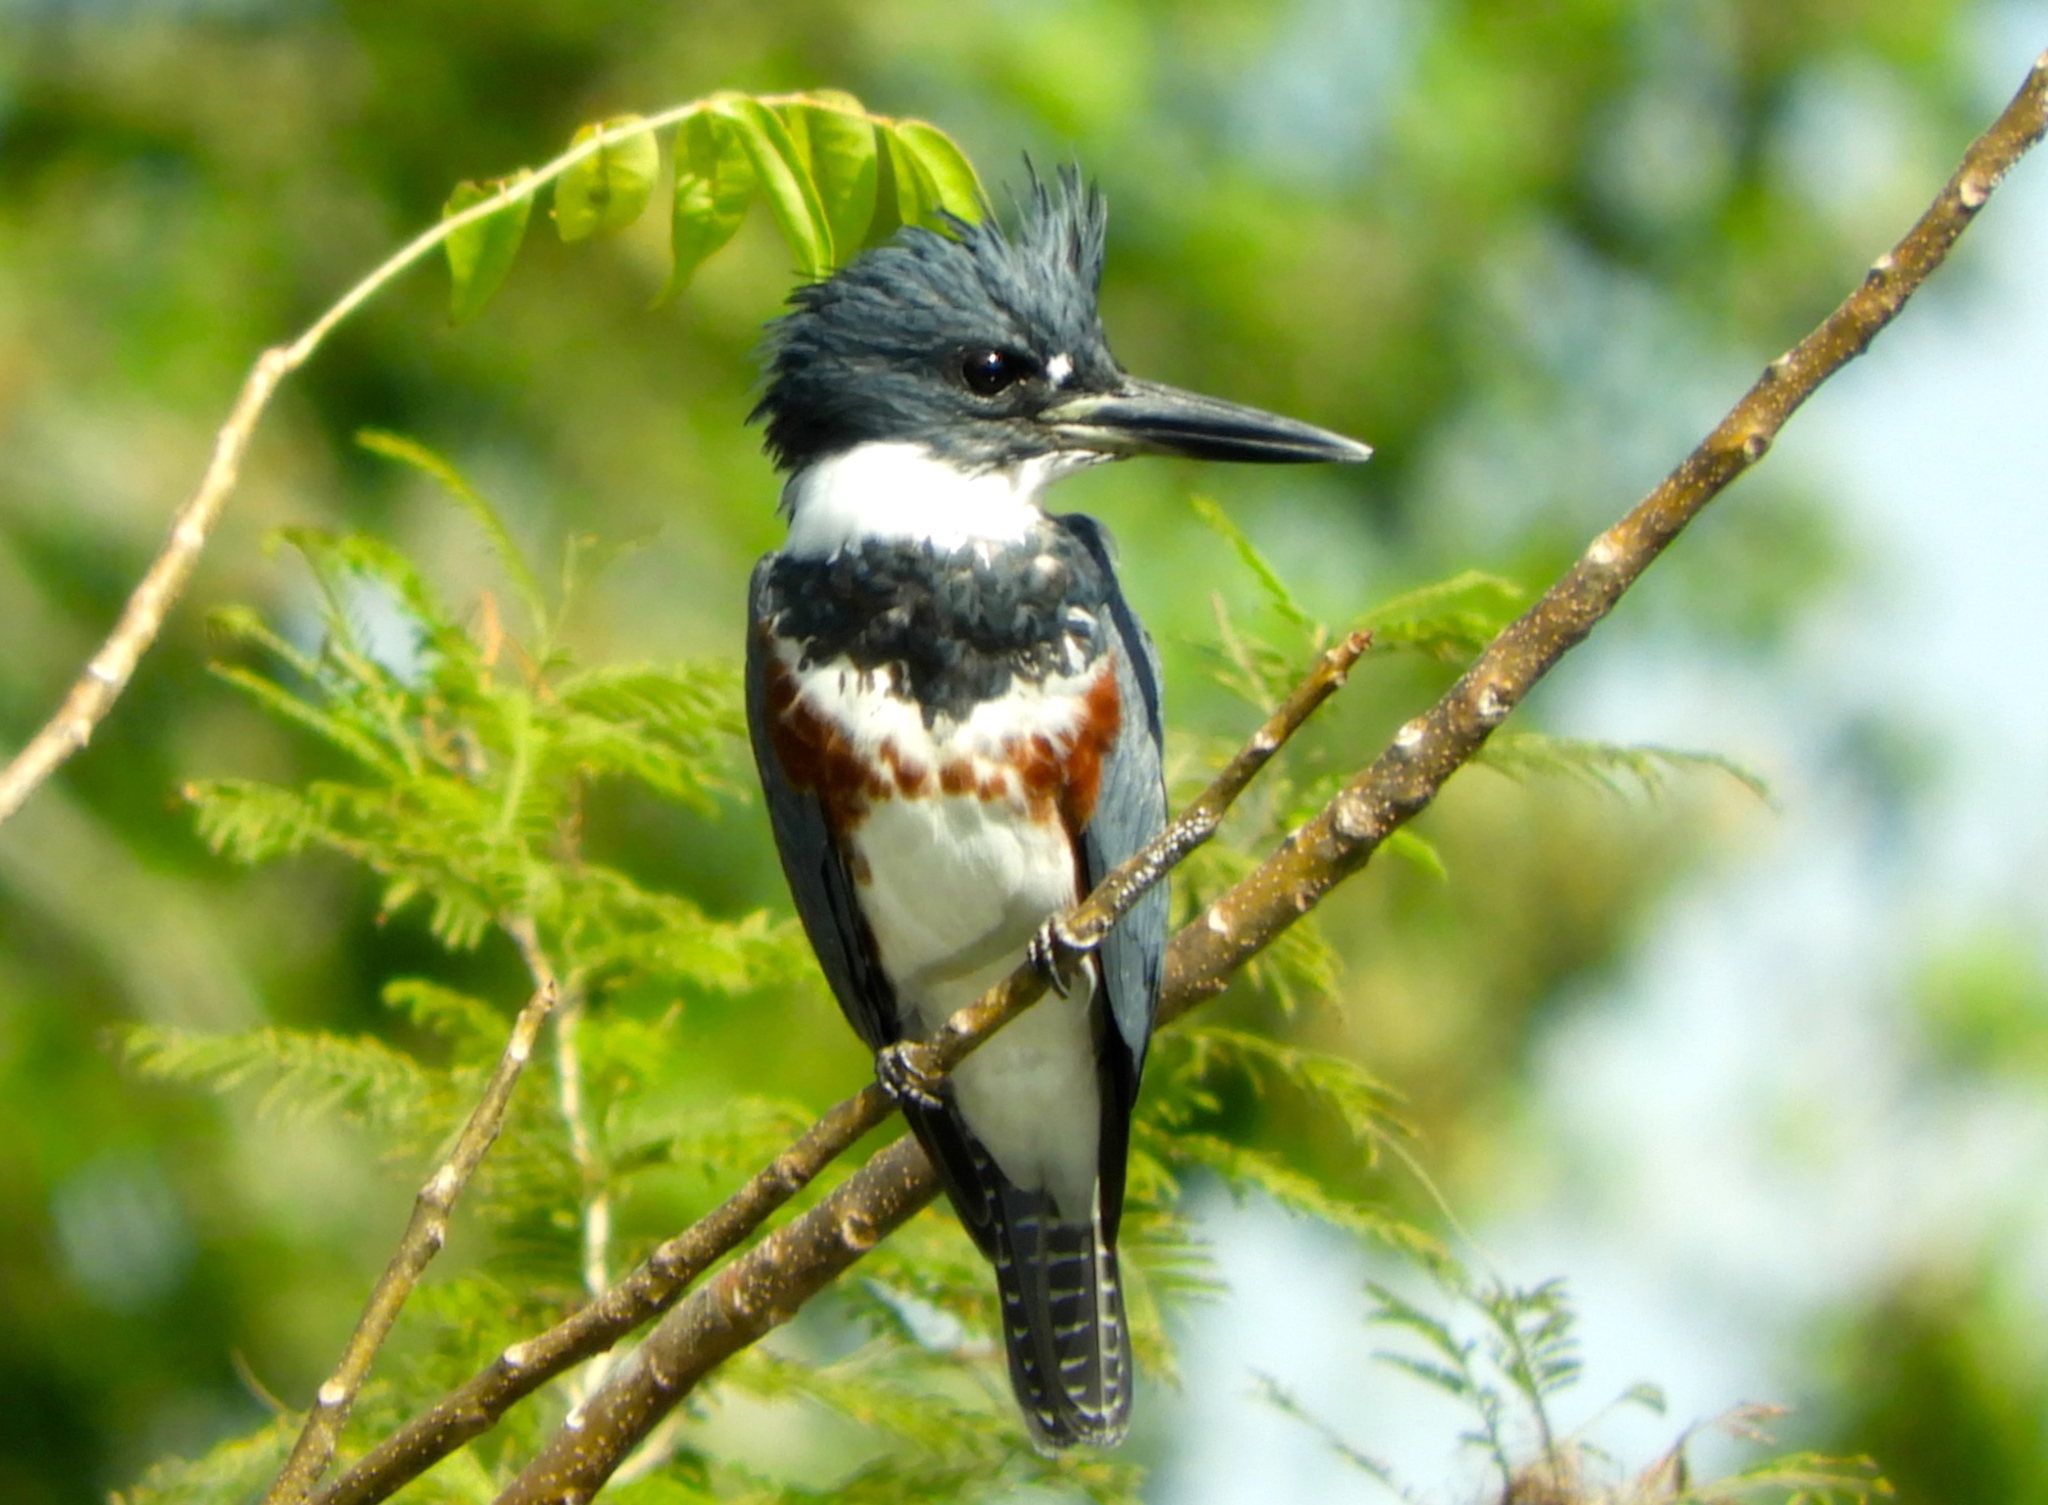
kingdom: Animalia
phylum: Chordata
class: Aves
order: Coraciiformes
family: Alcedinidae
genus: Megaceryle
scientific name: Megaceryle alcyon
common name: Belted kingfisher
